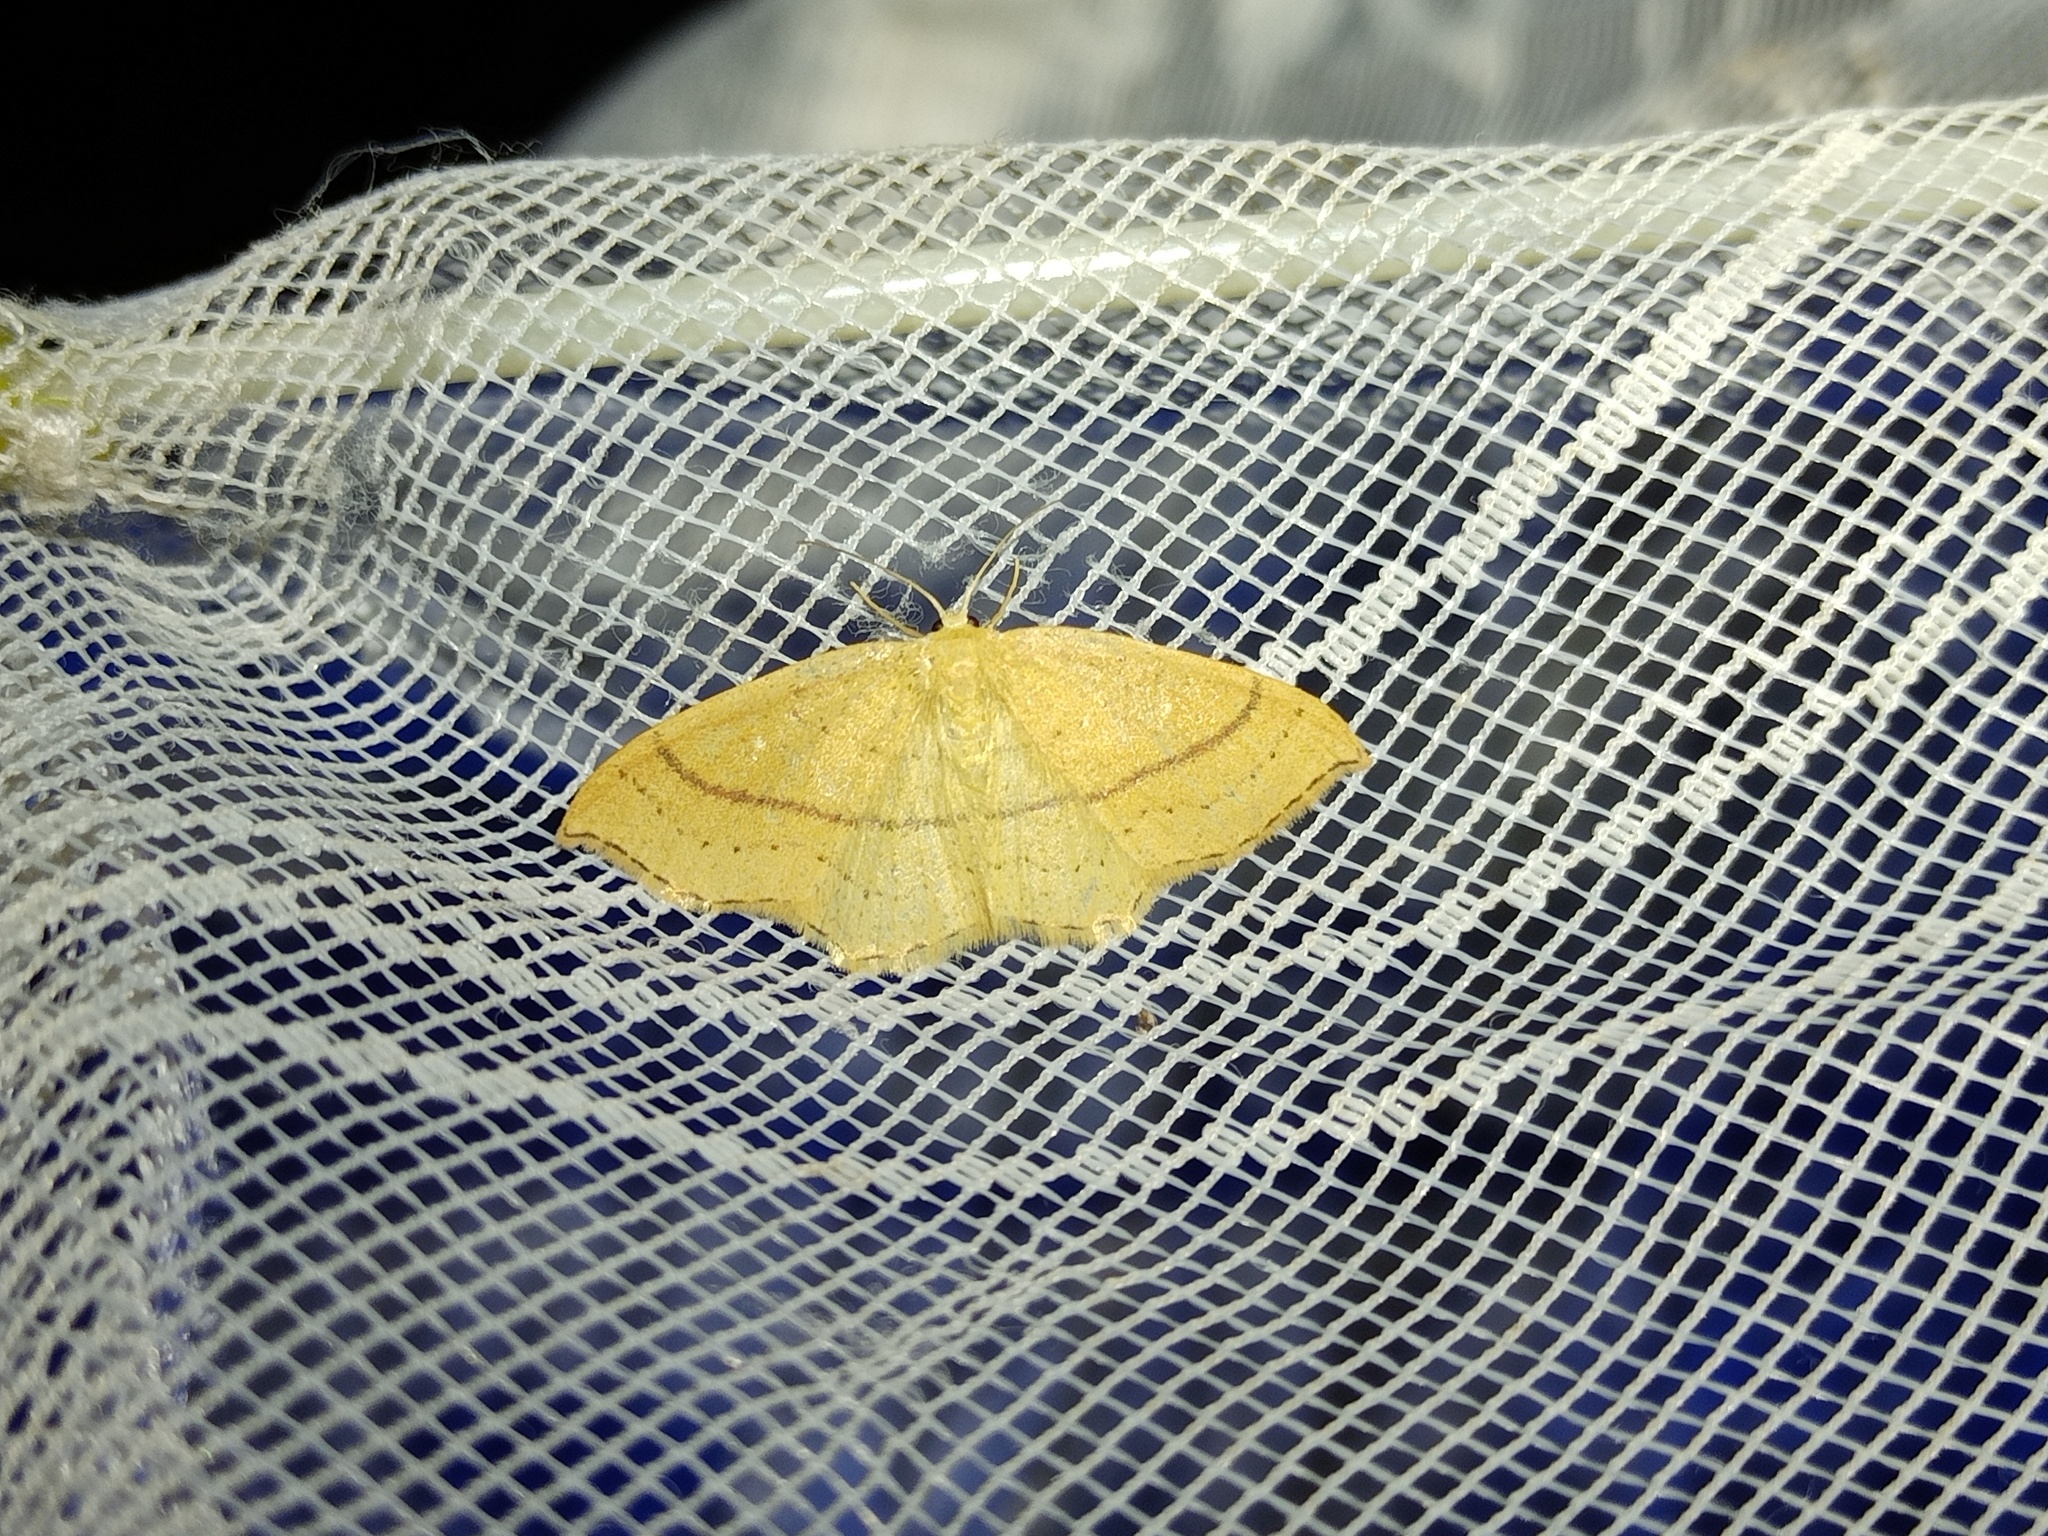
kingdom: Animalia
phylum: Arthropoda
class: Insecta
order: Lepidoptera
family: Geometridae
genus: Cyclophora
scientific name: Cyclophora linearia
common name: Clay triple-lines
